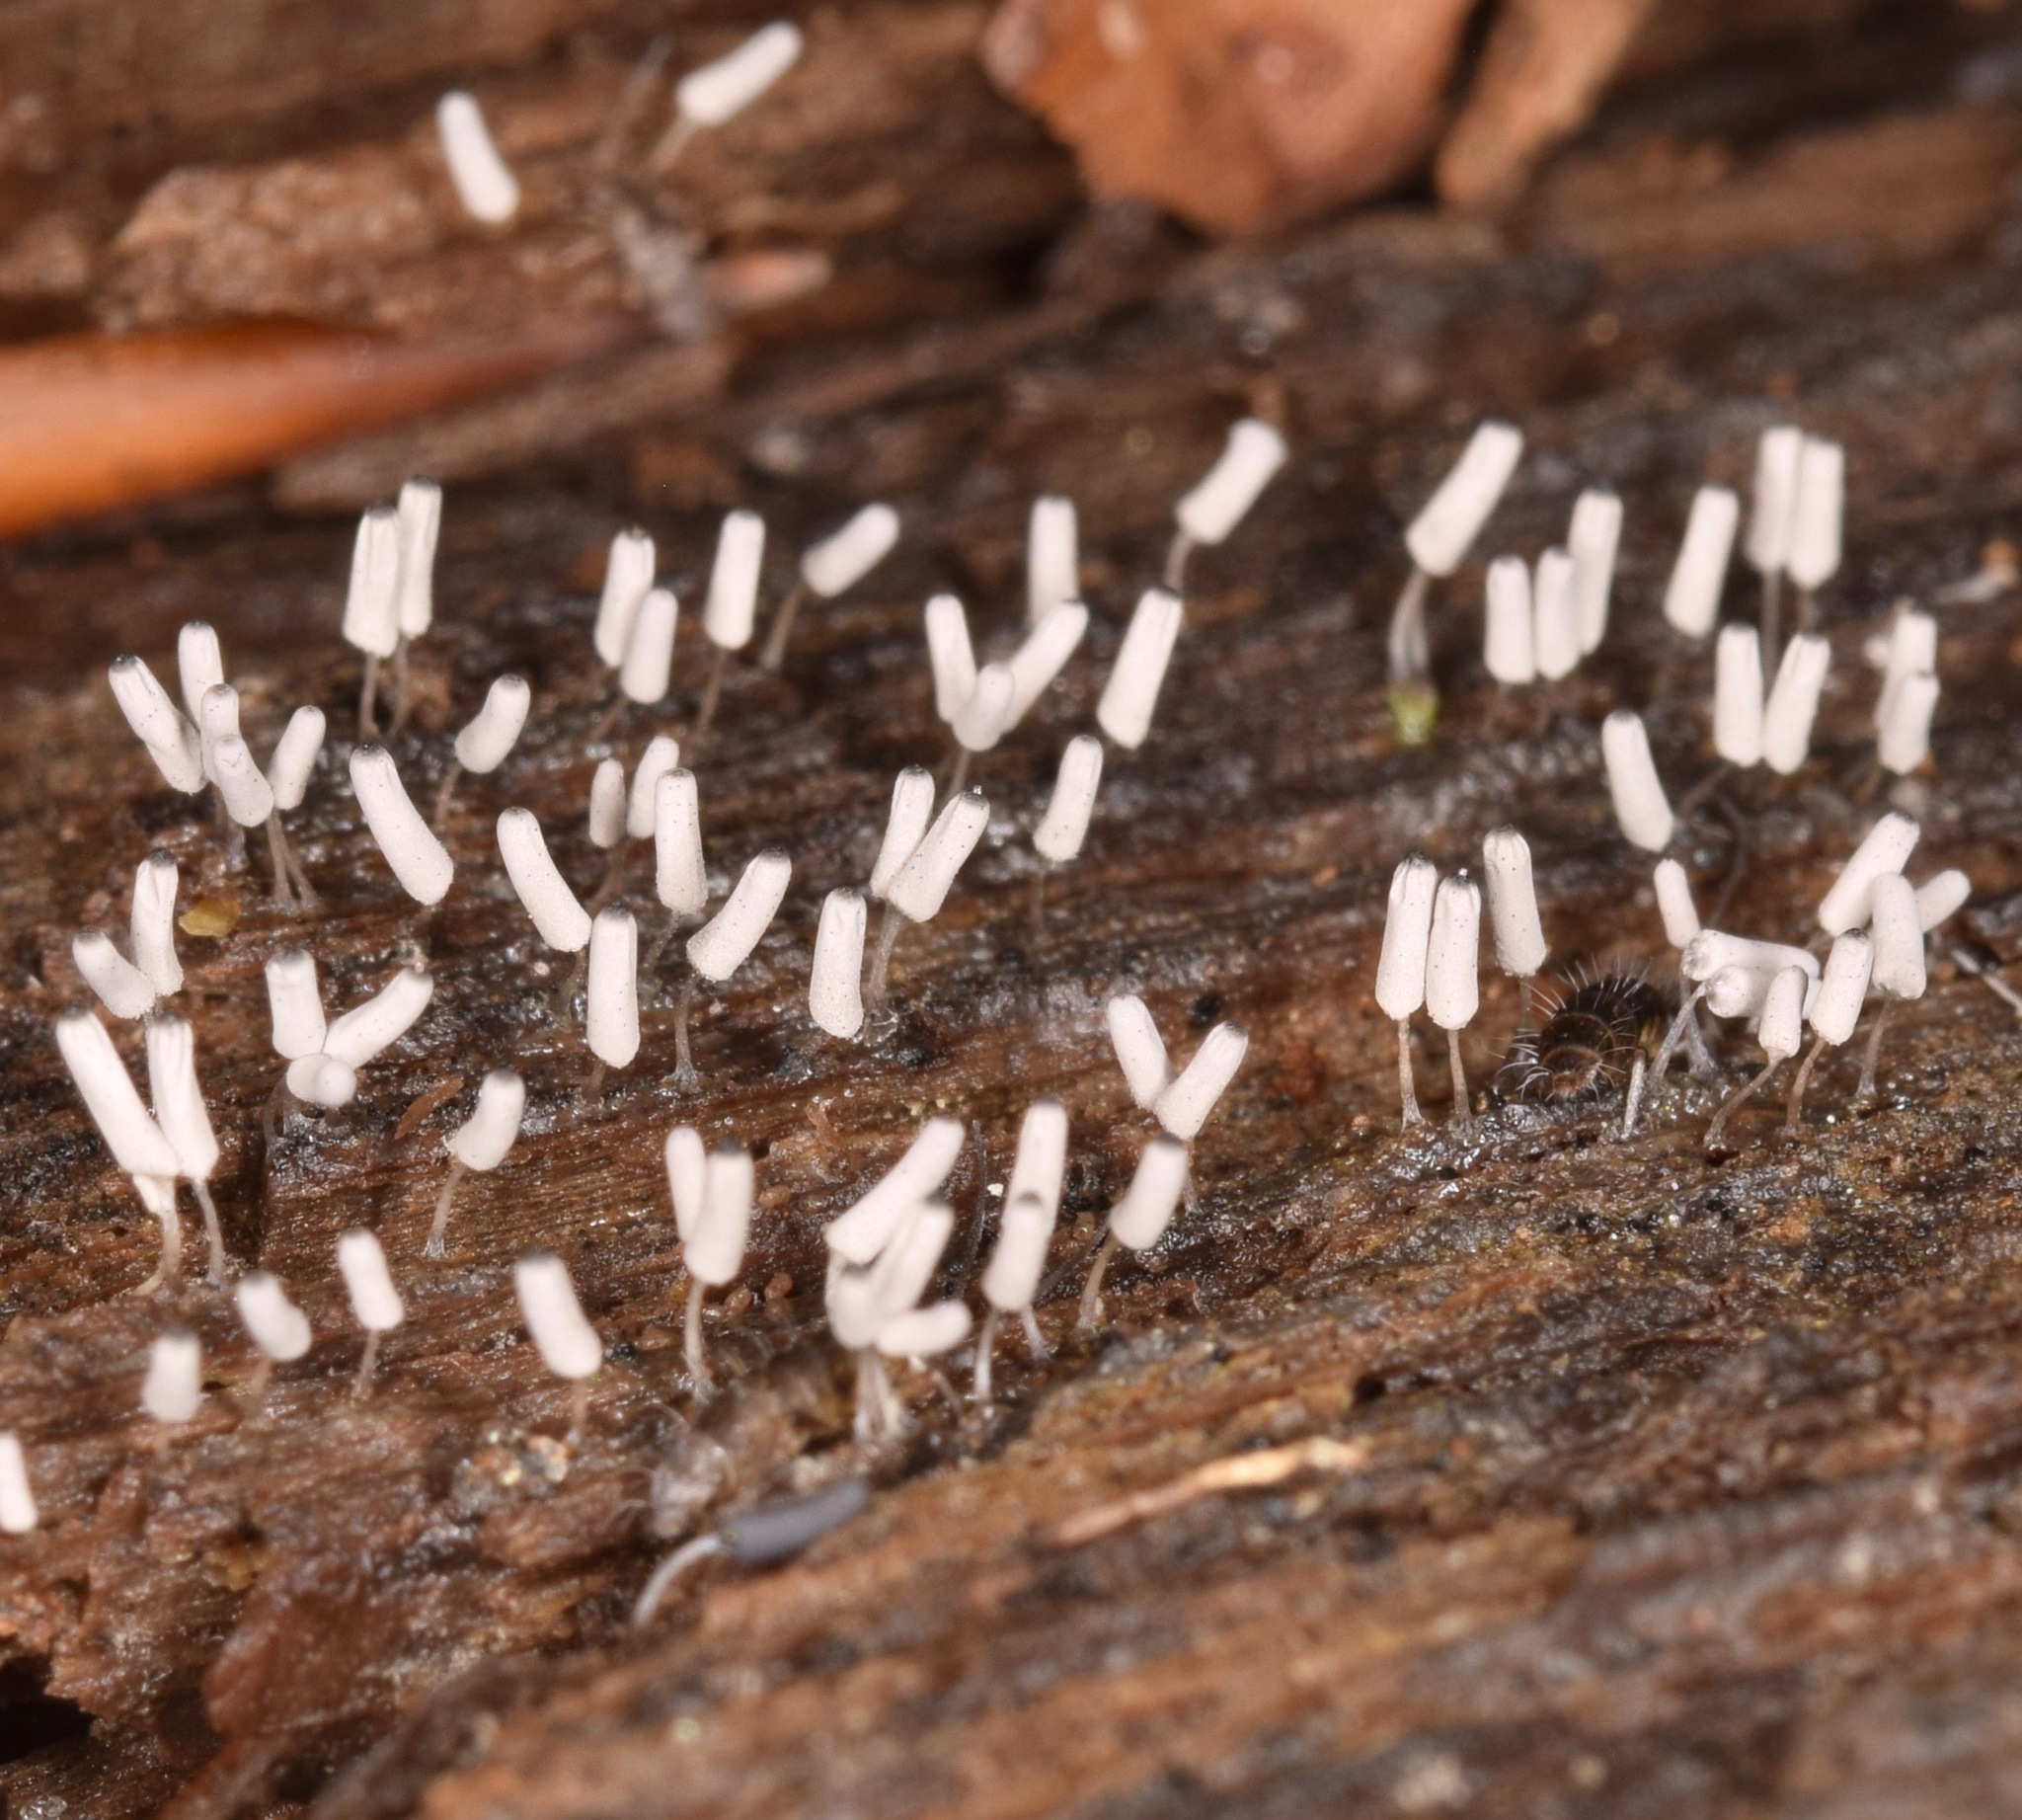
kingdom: Protozoa
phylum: Mycetozoa
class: Myxomycetes
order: Trichiales
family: Arcyriaceae
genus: Arcyria
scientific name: Arcyria cinerea
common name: White carnival candy slime mold
